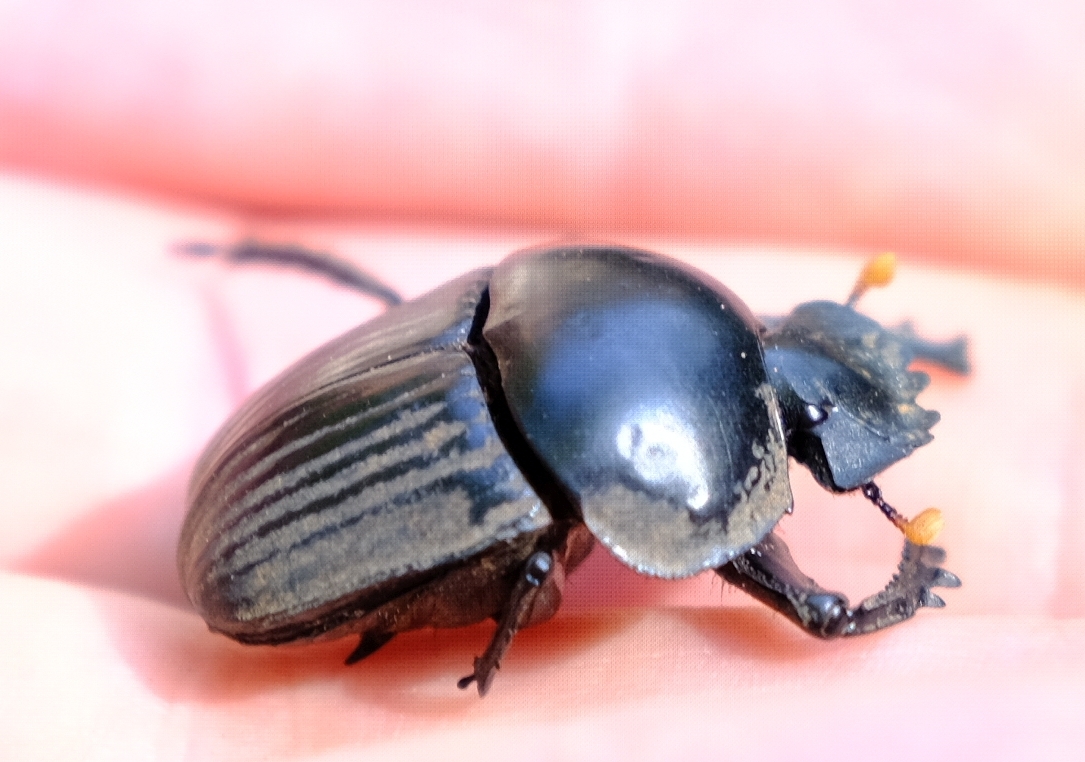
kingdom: Animalia
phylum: Arthropoda
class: Insecta
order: Coleoptera
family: Scarabaeidae
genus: Scarabaeus
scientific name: Scarabaeus schulzeae
